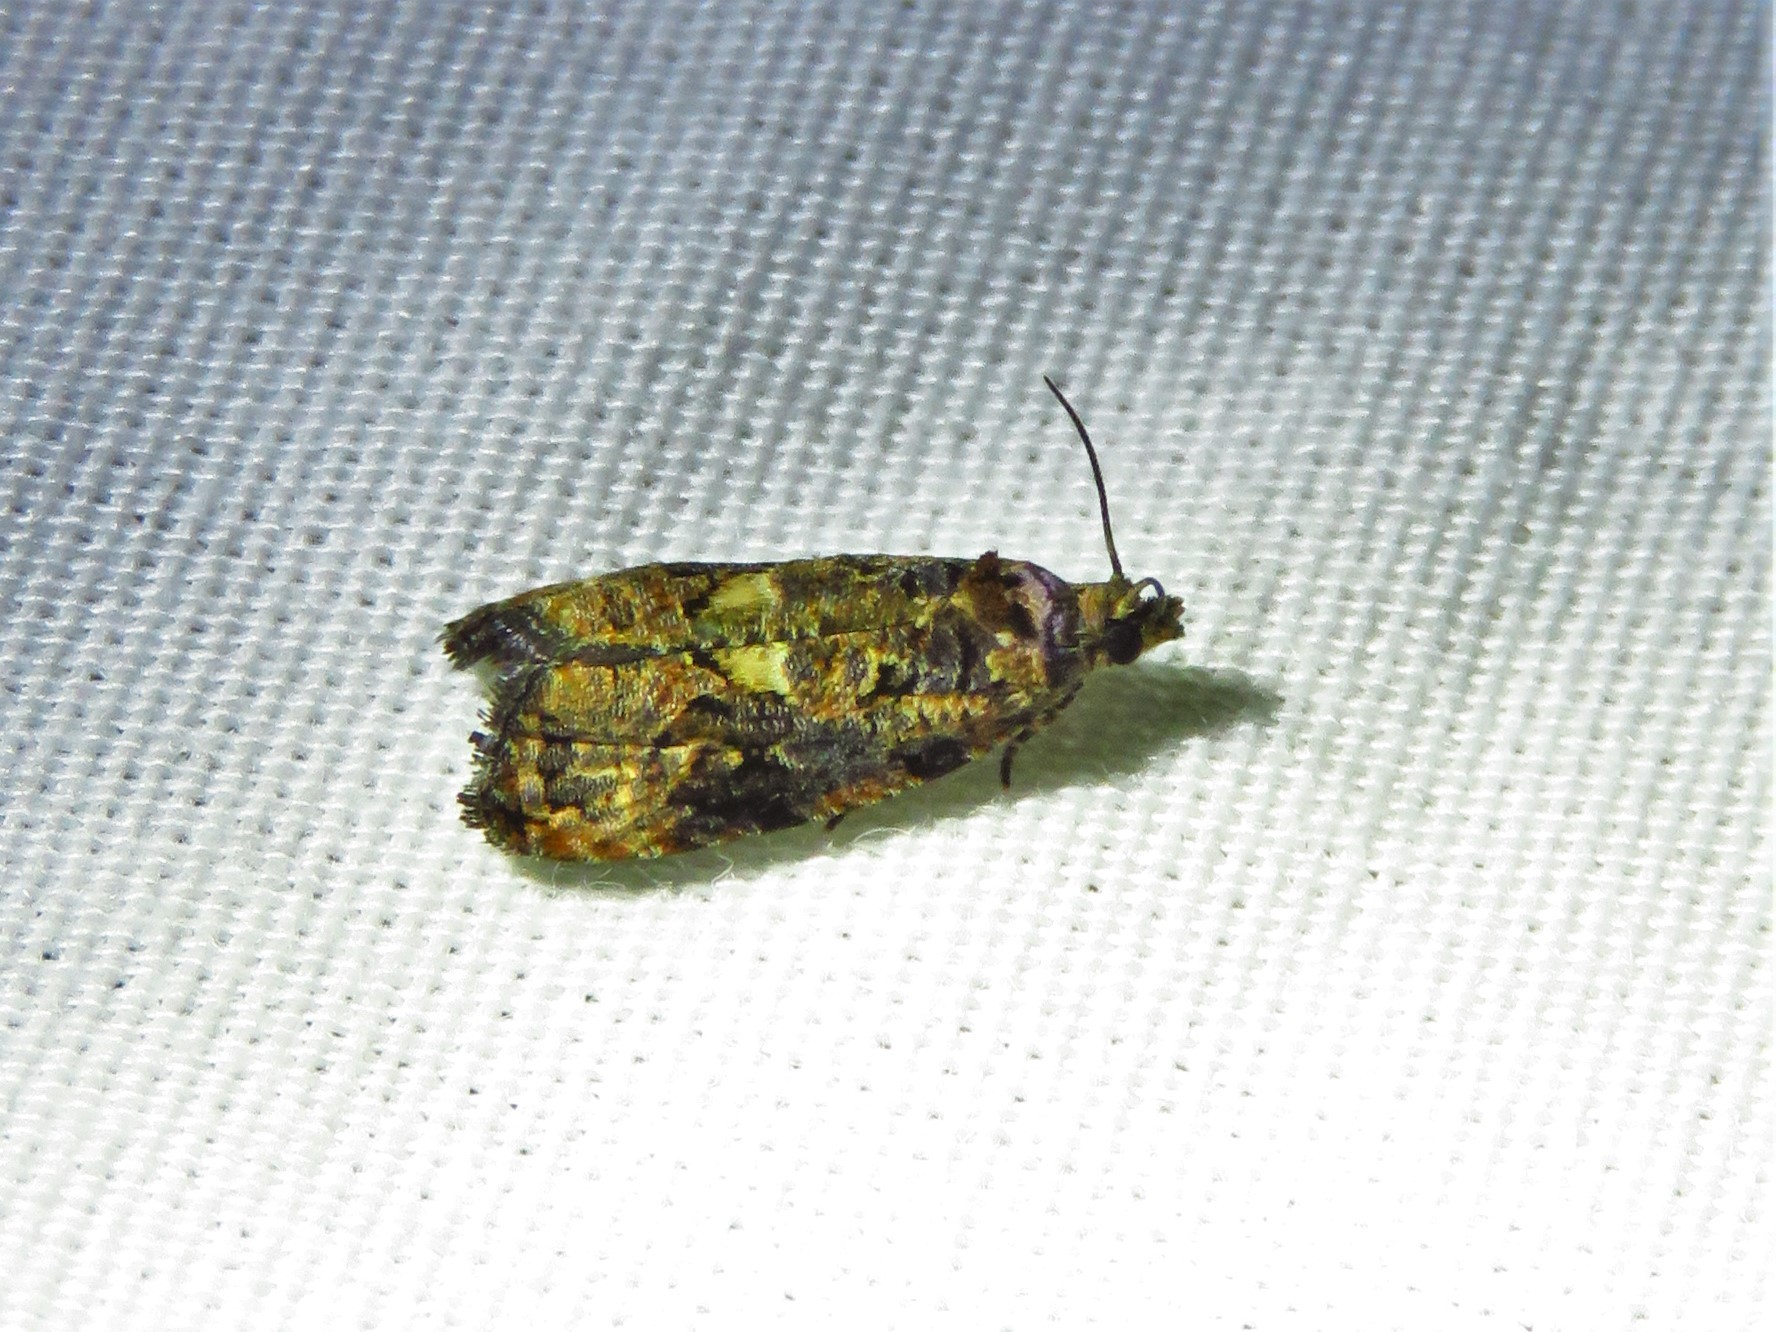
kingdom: Animalia
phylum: Arthropoda
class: Insecta
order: Lepidoptera
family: Tortricidae
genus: Endothenia
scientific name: Endothenia hebesana
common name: Verbena bud moth
